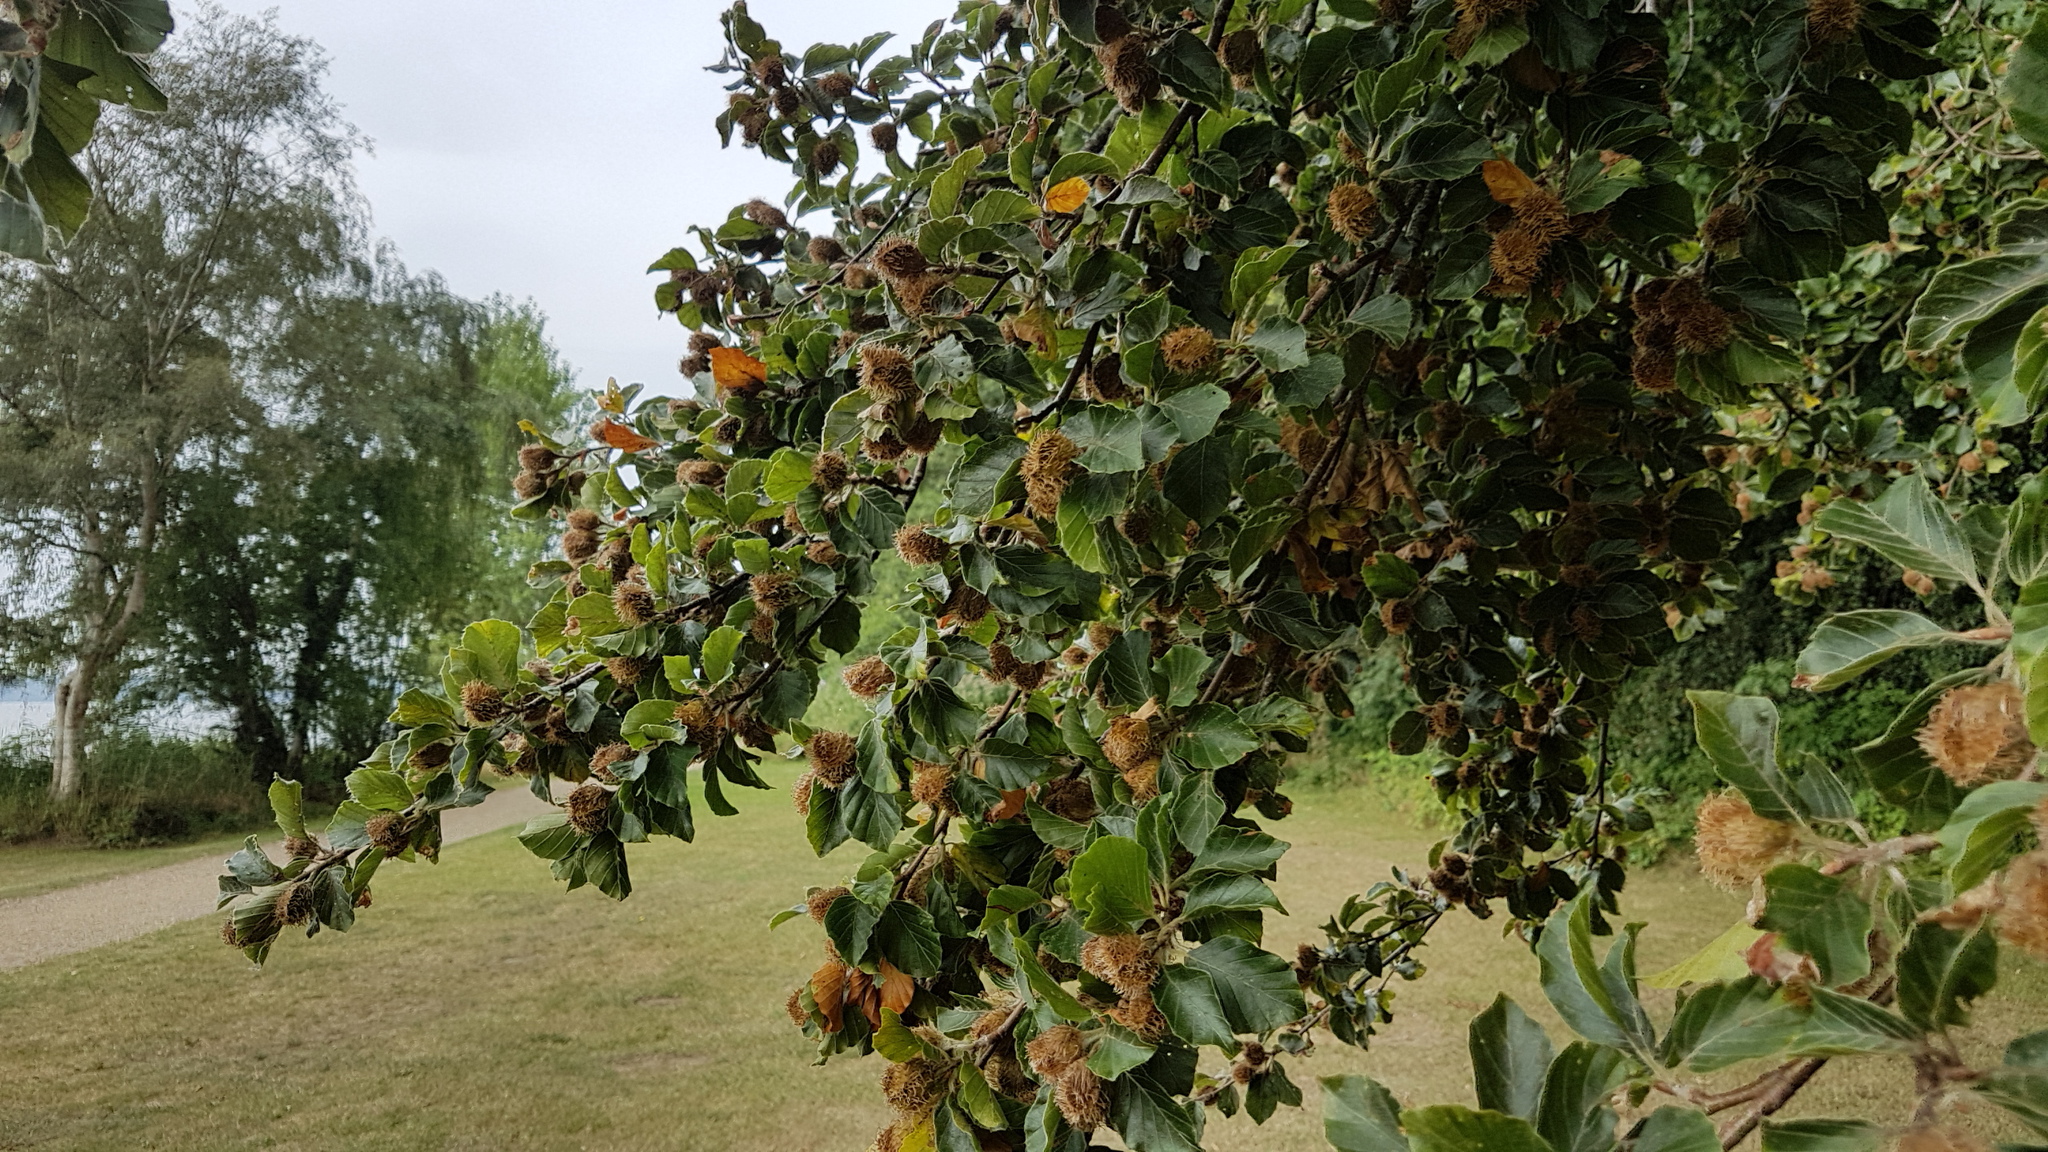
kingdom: Plantae
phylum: Tracheophyta
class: Magnoliopsida
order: Fagales
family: Fagaceae
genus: Fagus
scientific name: Fagus sylvatica
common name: Beech
